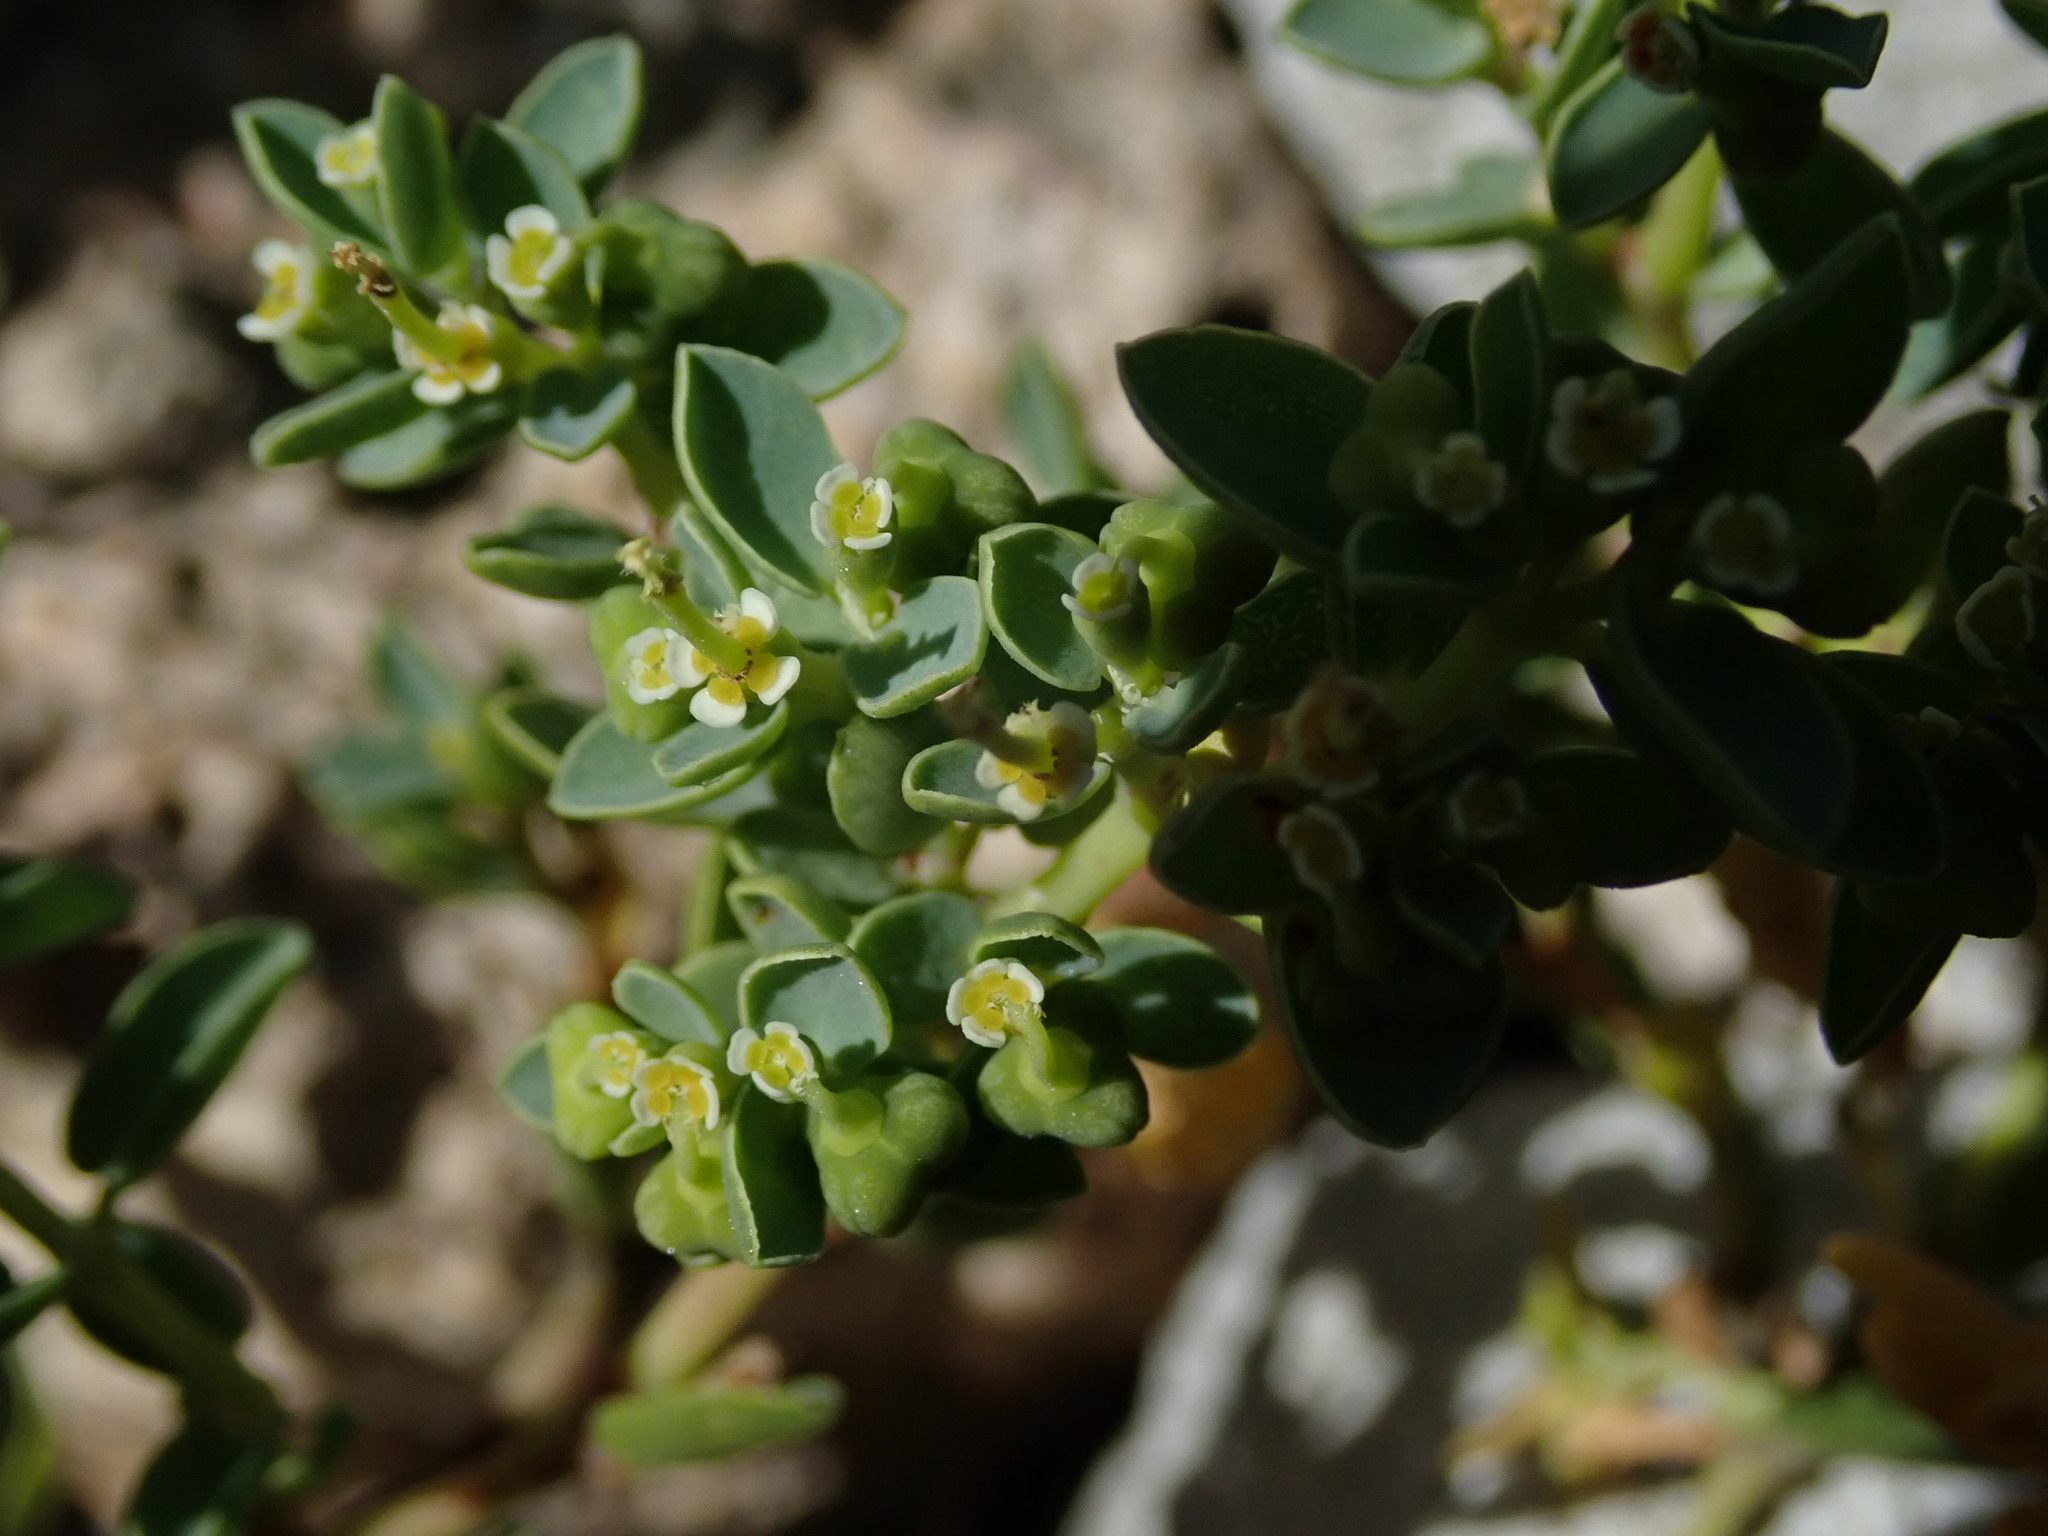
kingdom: Plantae
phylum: Tracheophyta
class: Magnoliopsida
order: Malpighiales
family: Euphorbiaceae
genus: Euphorbia
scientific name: Euphorbia mesembryanthemifolia
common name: Coastal beach sandmat
